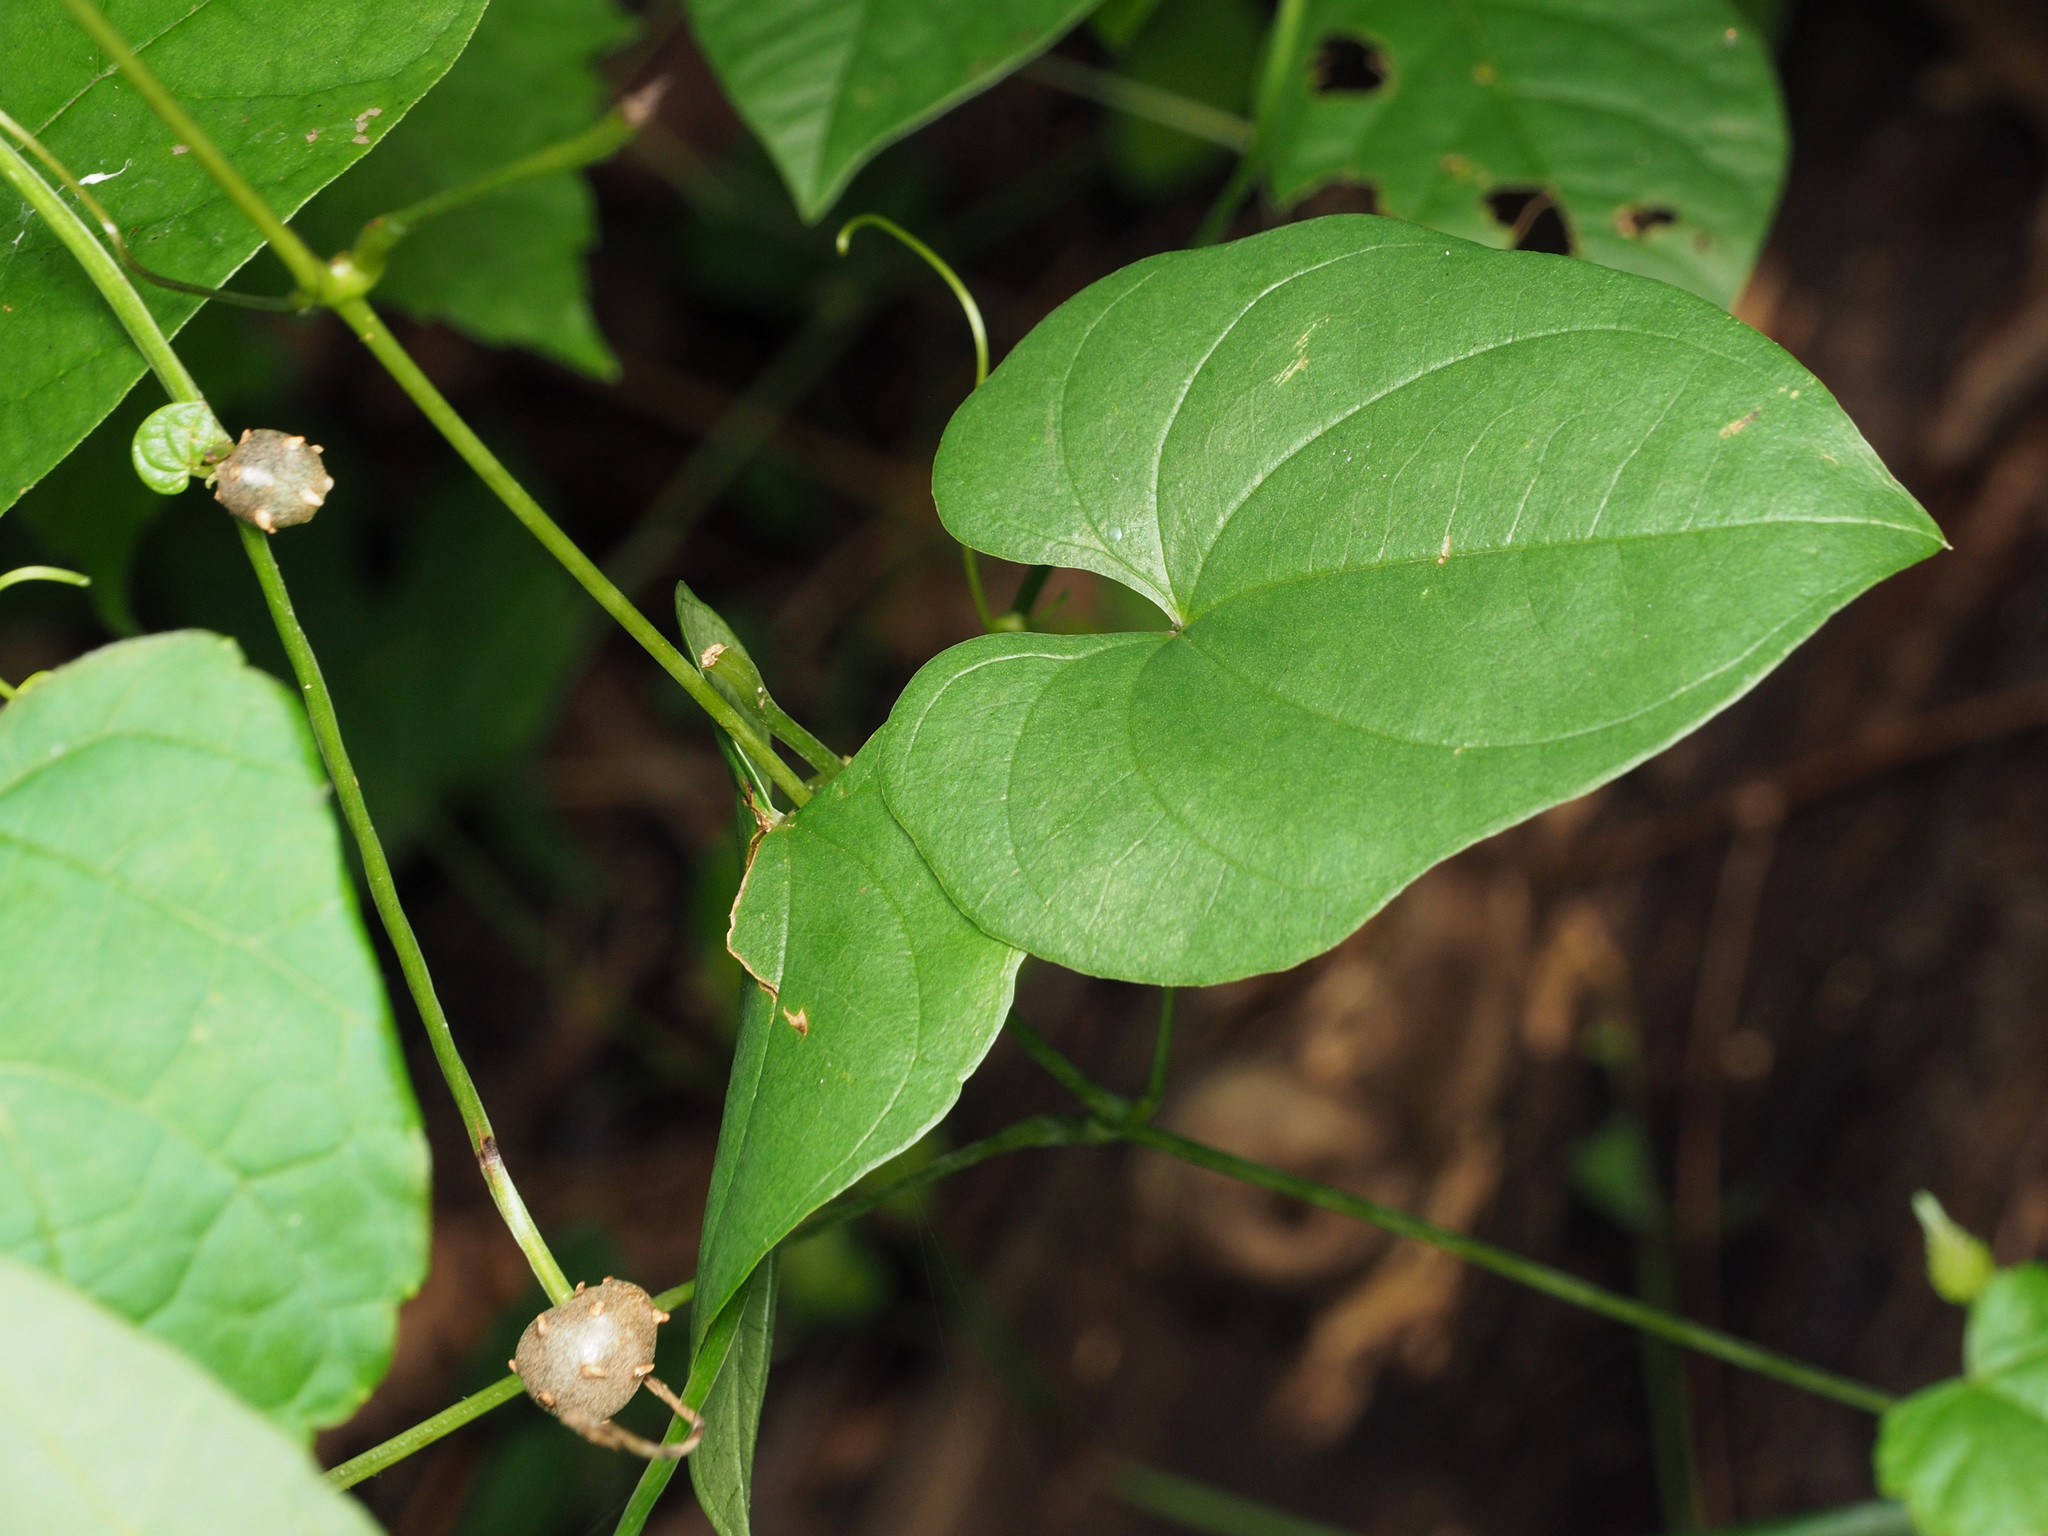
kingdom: Plantae
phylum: Tracheophyta
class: Liliopsida
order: Dioscoreales
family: Dioscoreaceae
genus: Dioscorea
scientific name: Dioscorea polystachya
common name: Chinese yam
